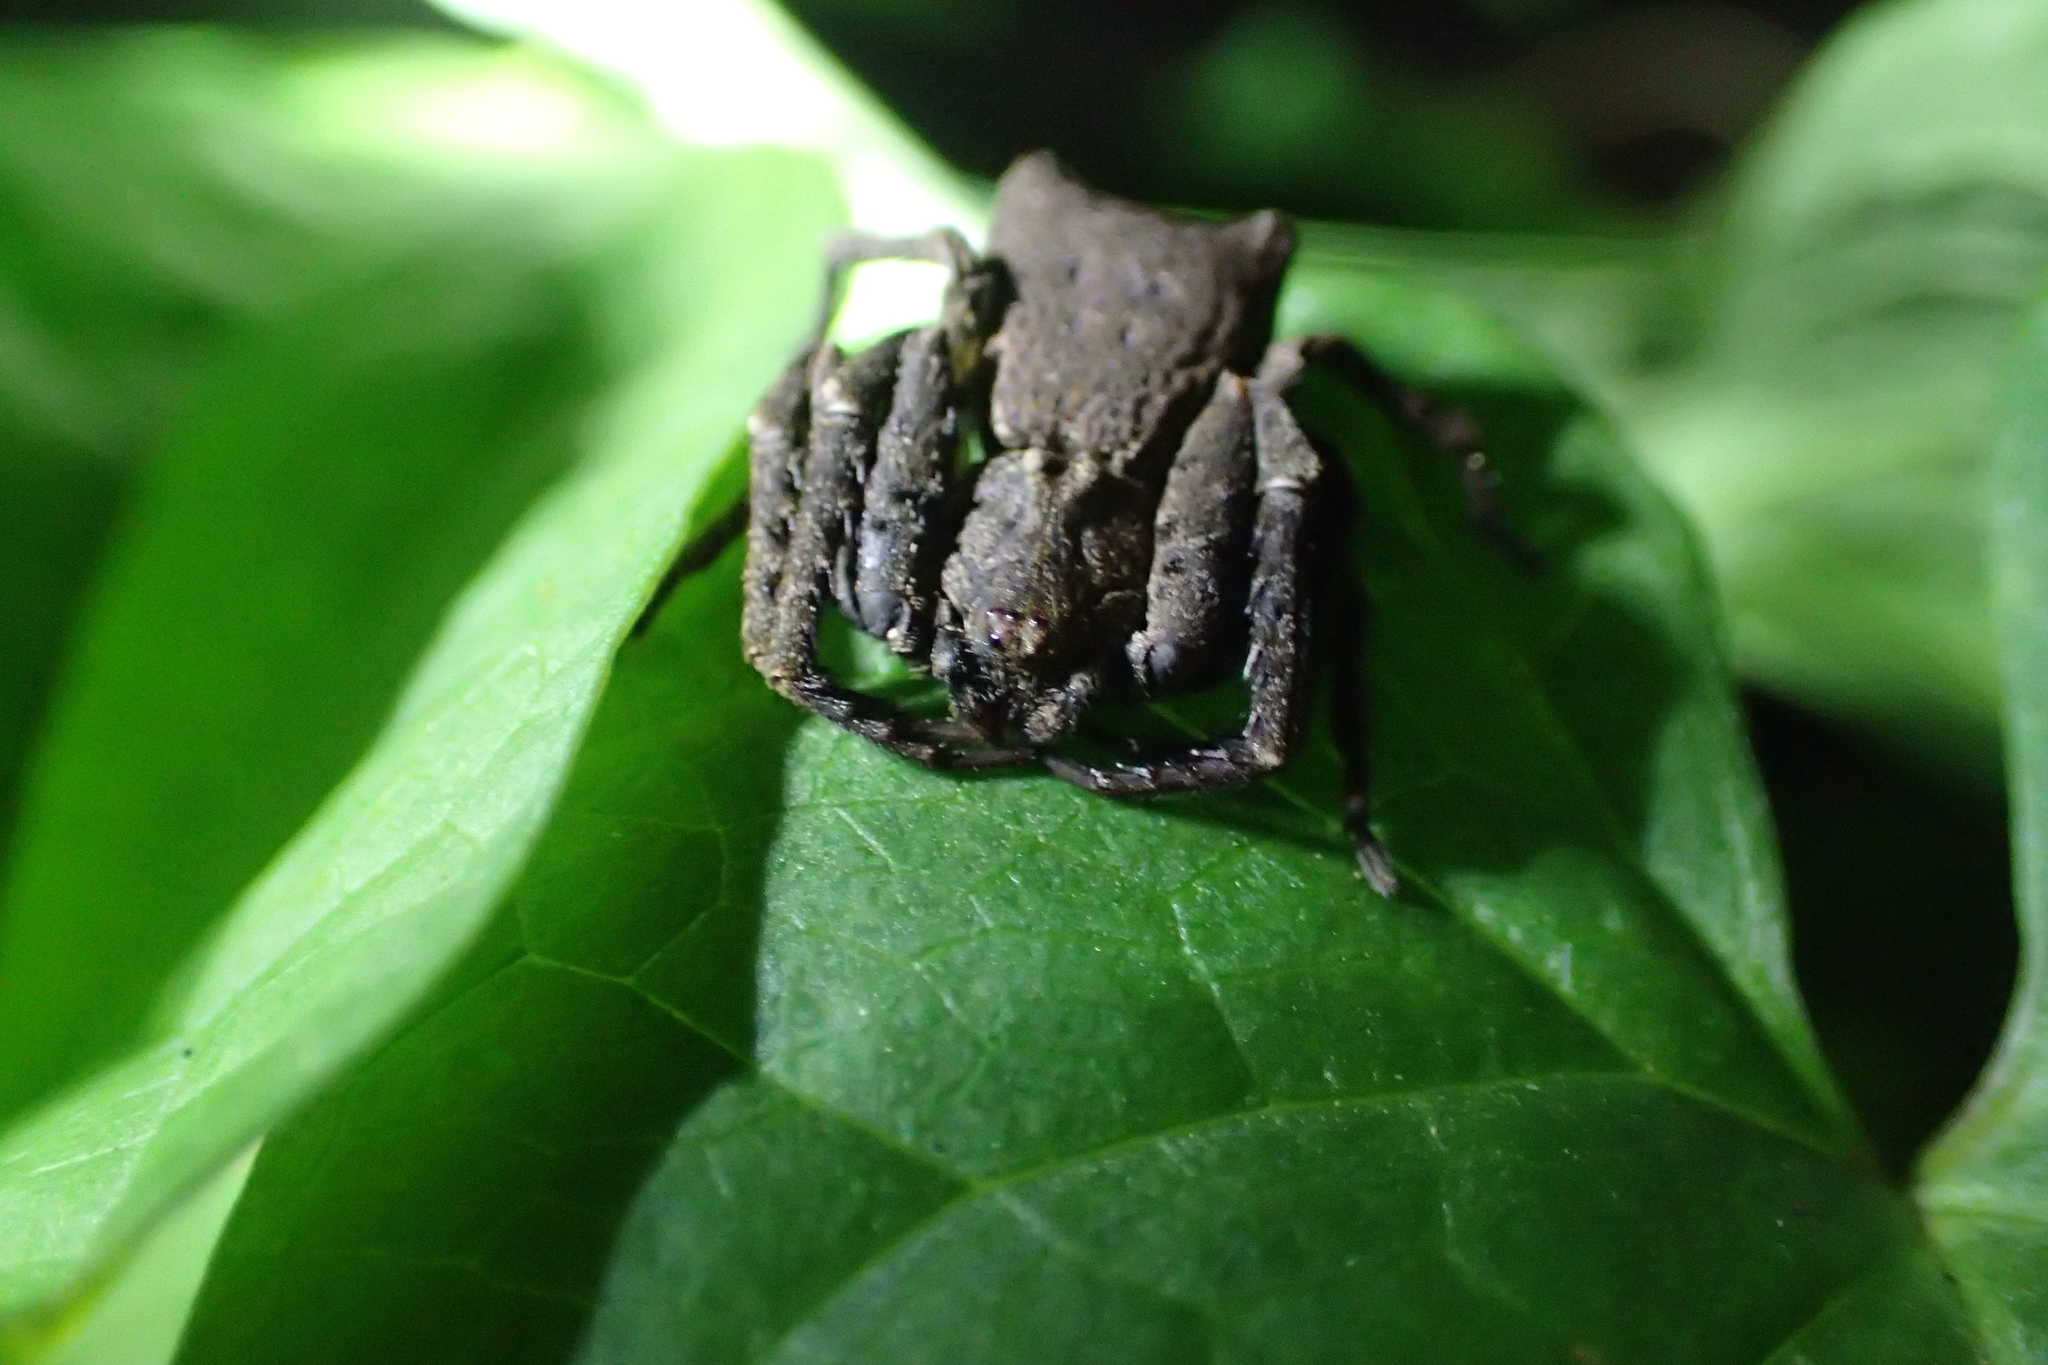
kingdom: Animalia
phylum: Arthropoda
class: Arachnida
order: Araneae
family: Thomisidae
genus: Sidymella
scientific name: Sidymella angularis
